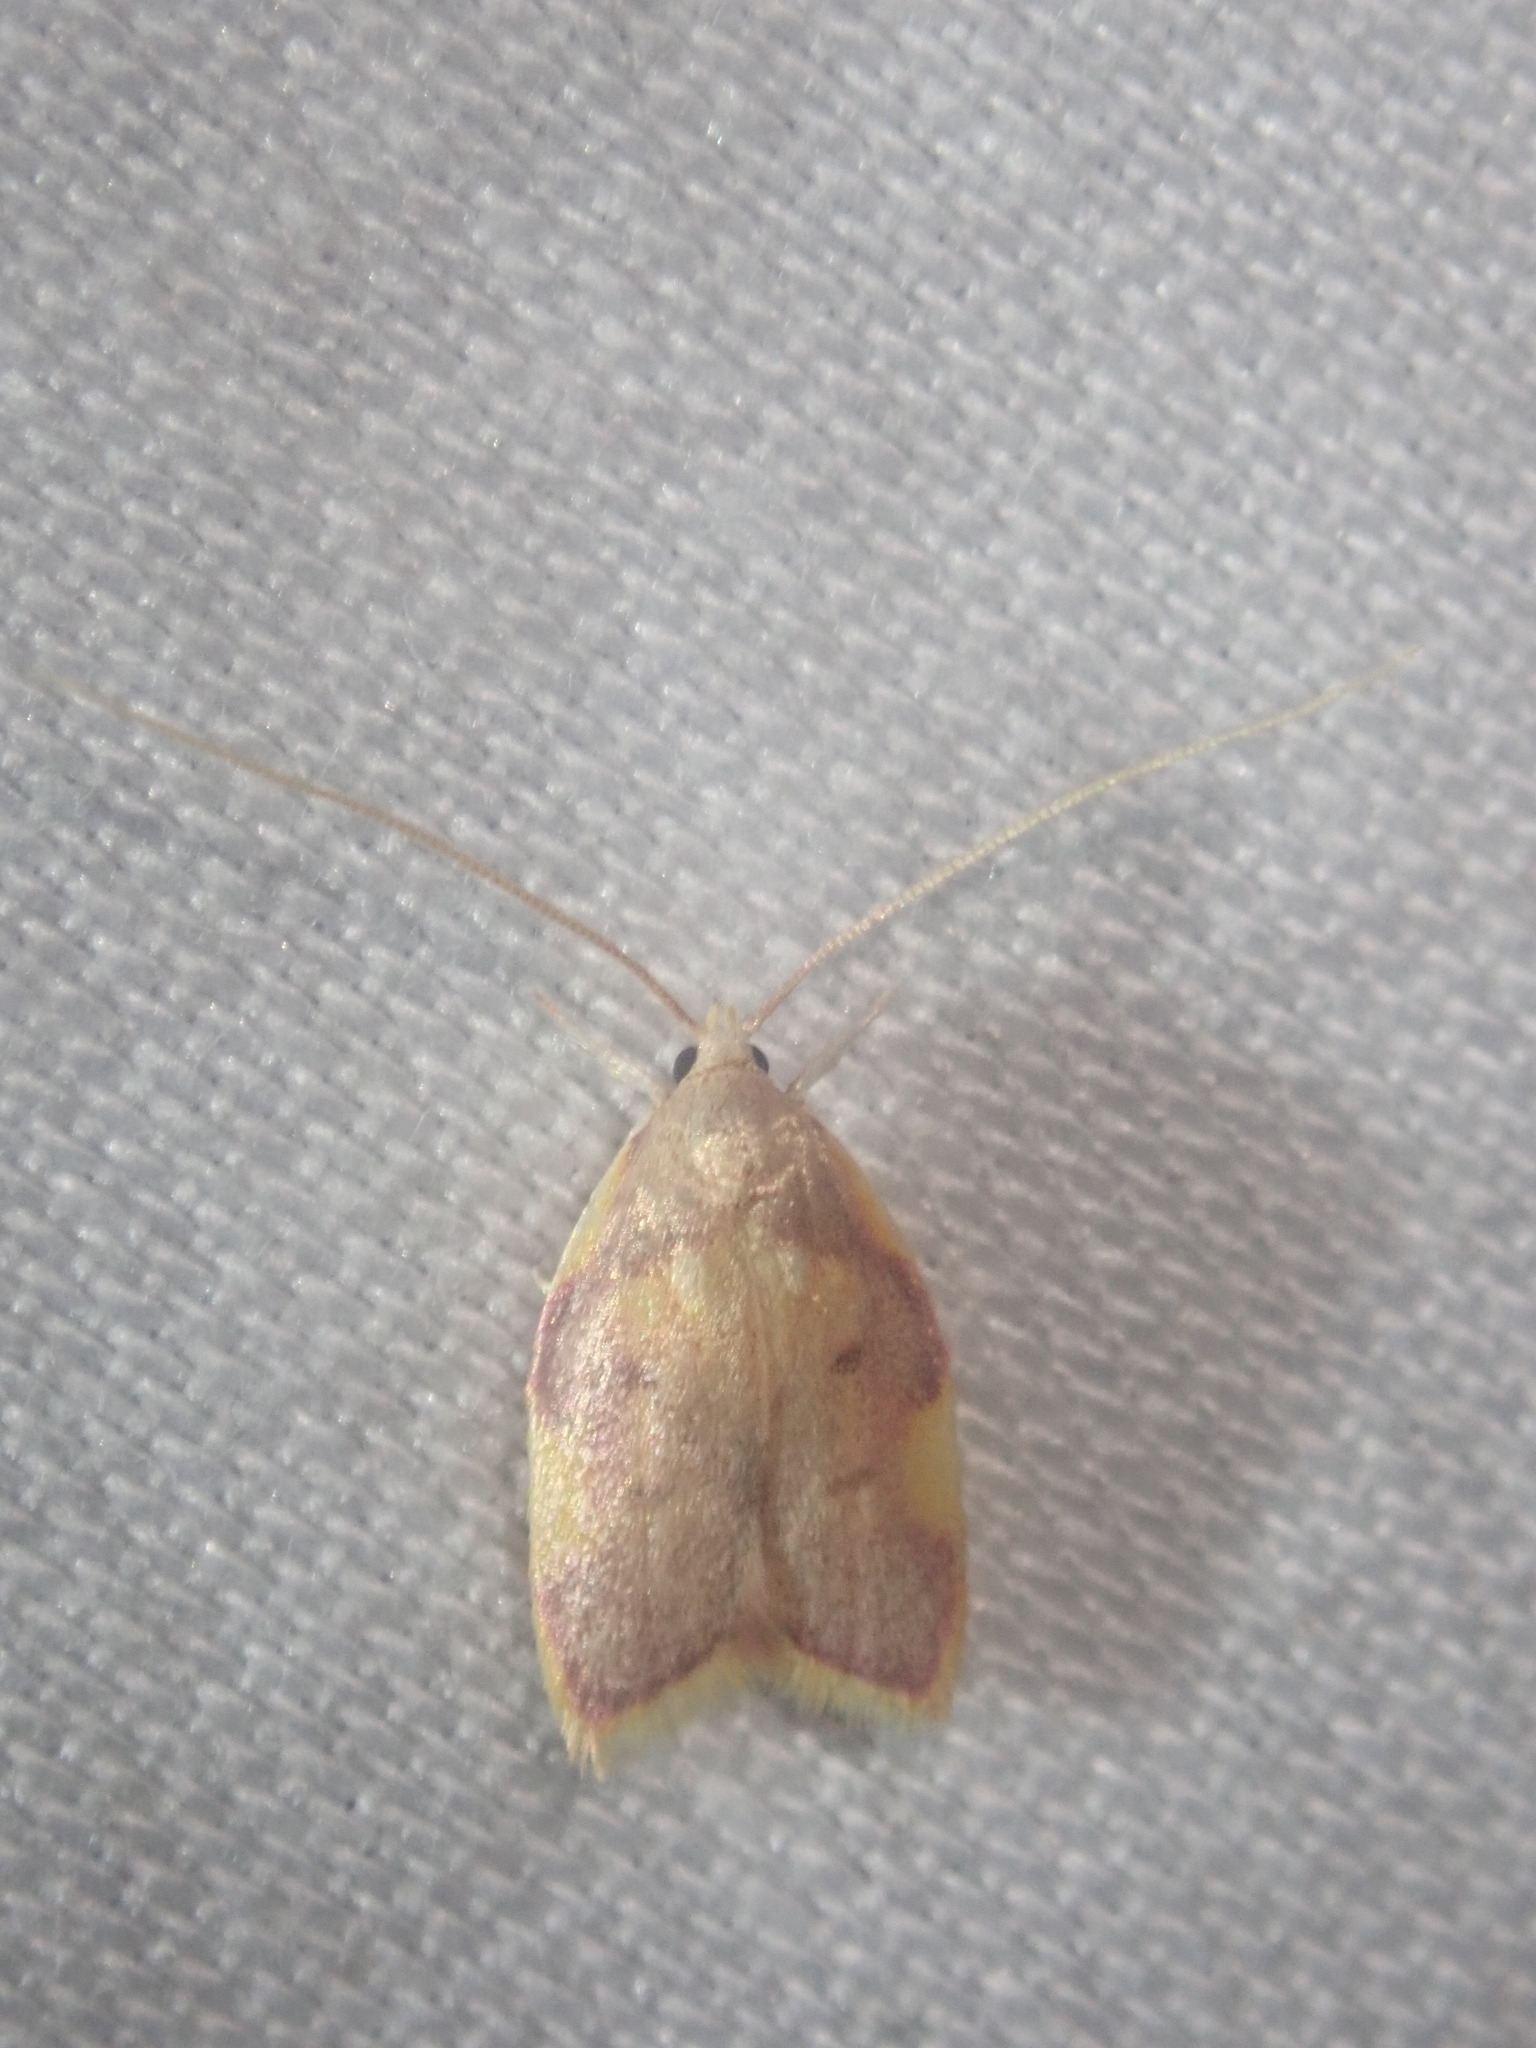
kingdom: Animalia
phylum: Arthropoda
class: Insecta
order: Lepidoptera
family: Peleopodidae
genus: Carcina
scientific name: Carcina quercana
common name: Moth
